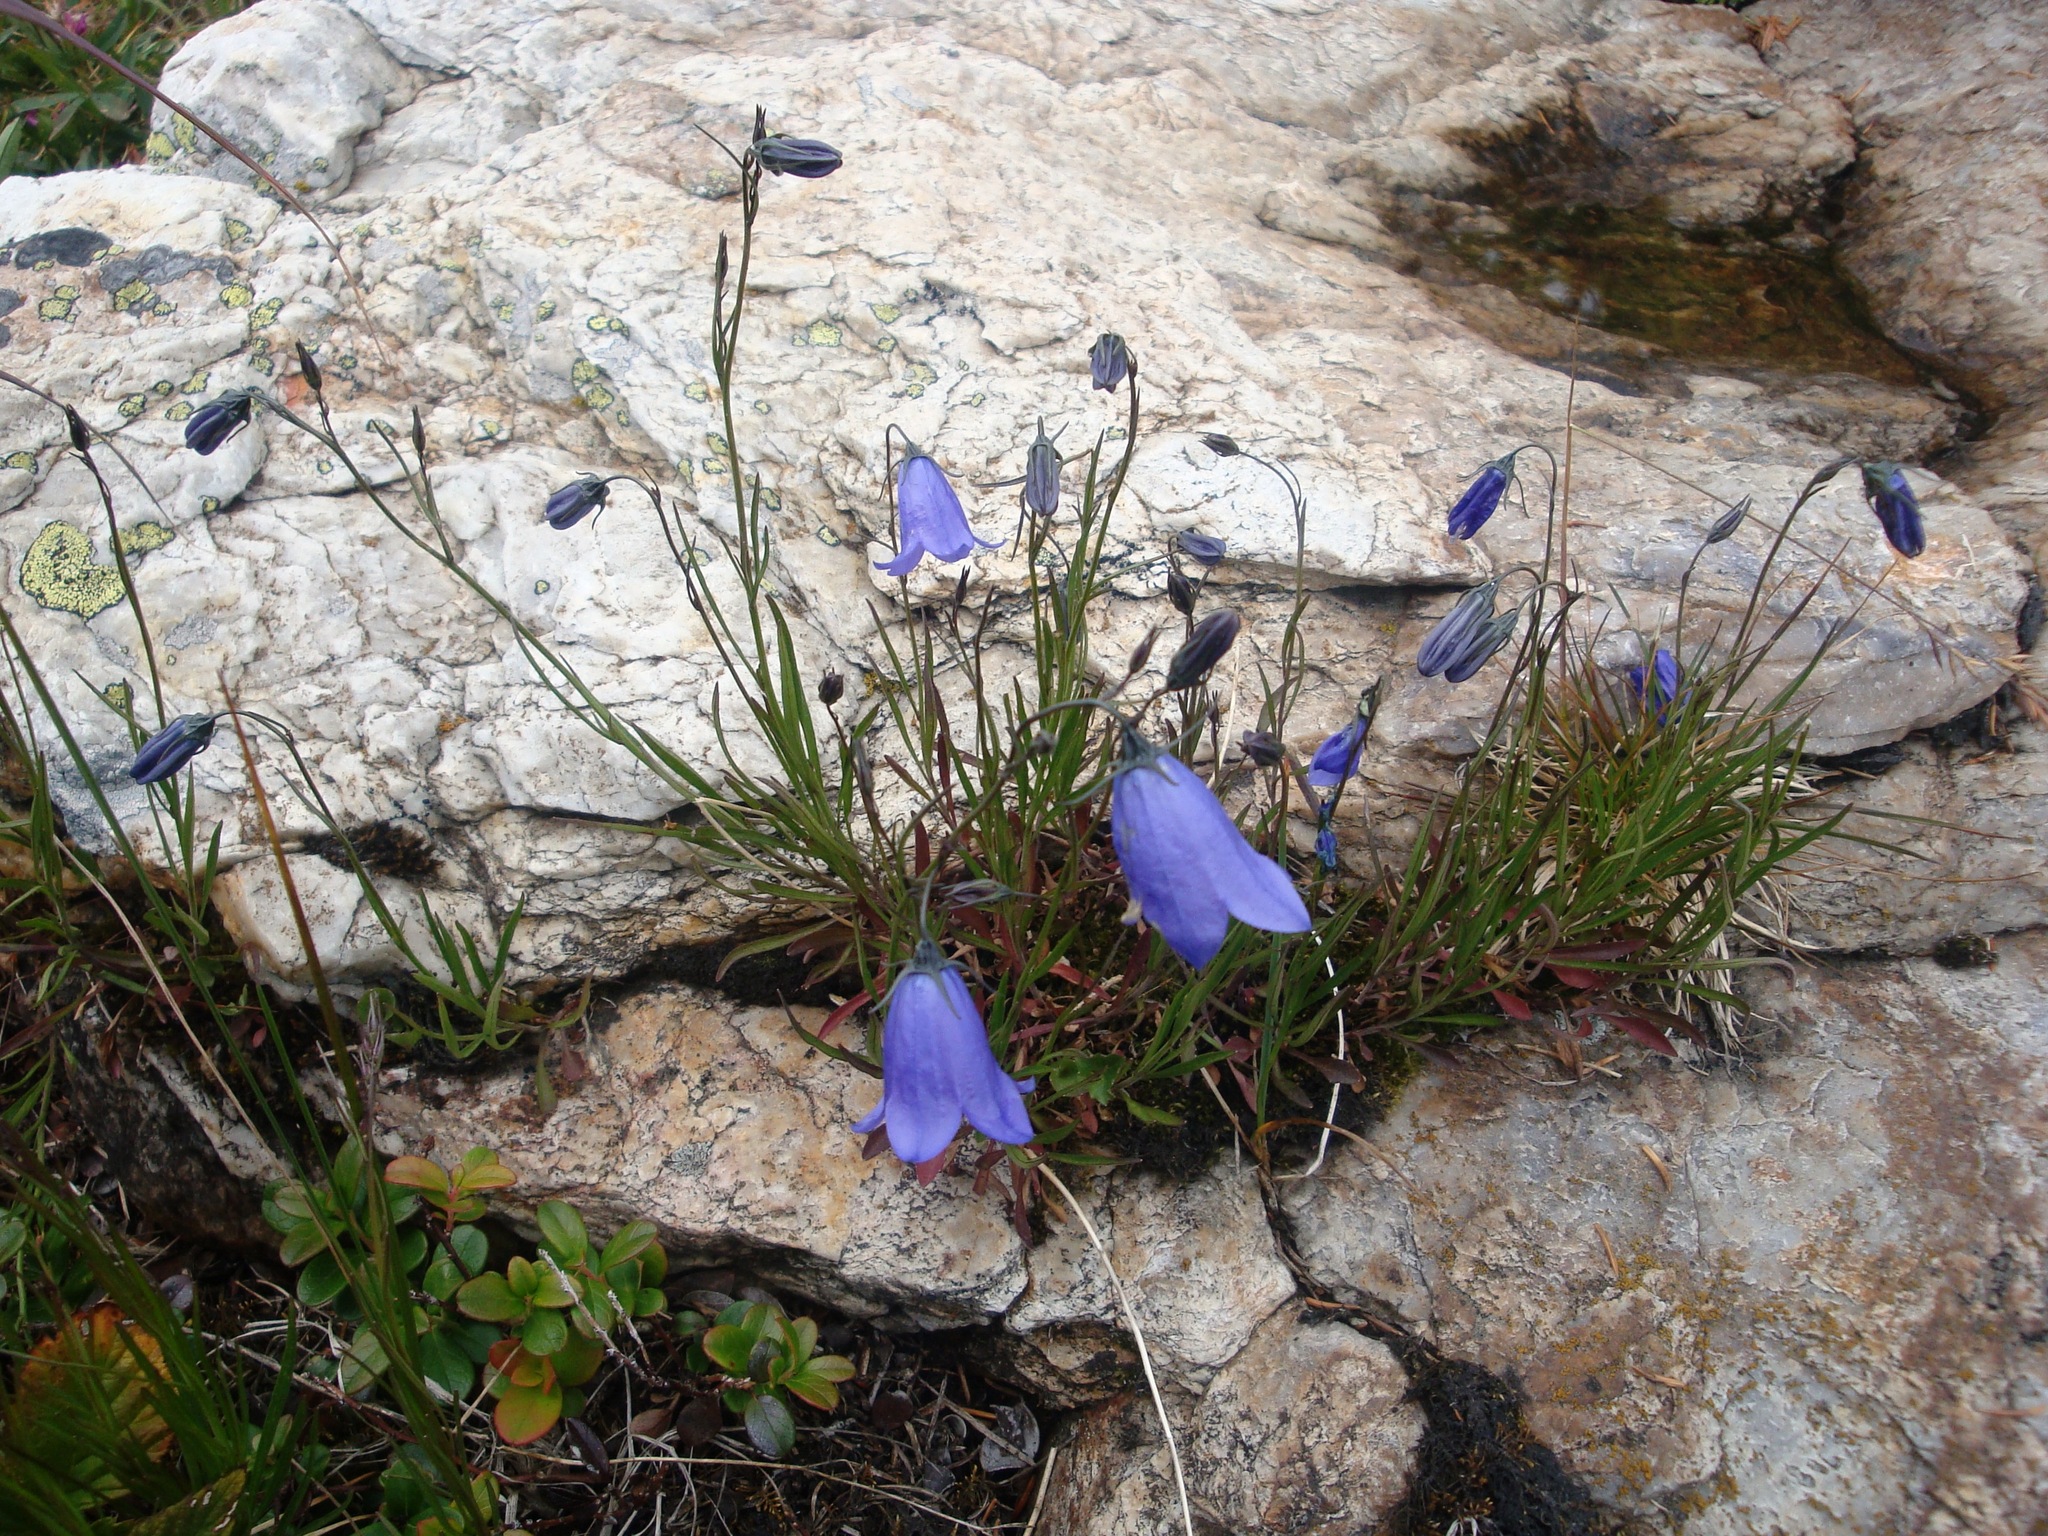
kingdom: Plantae
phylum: Tracheophyta
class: Magnoliopsida
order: Asterales
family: Campanulaceae
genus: Campanula
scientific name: Campanula rotundifolia
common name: Harebell
